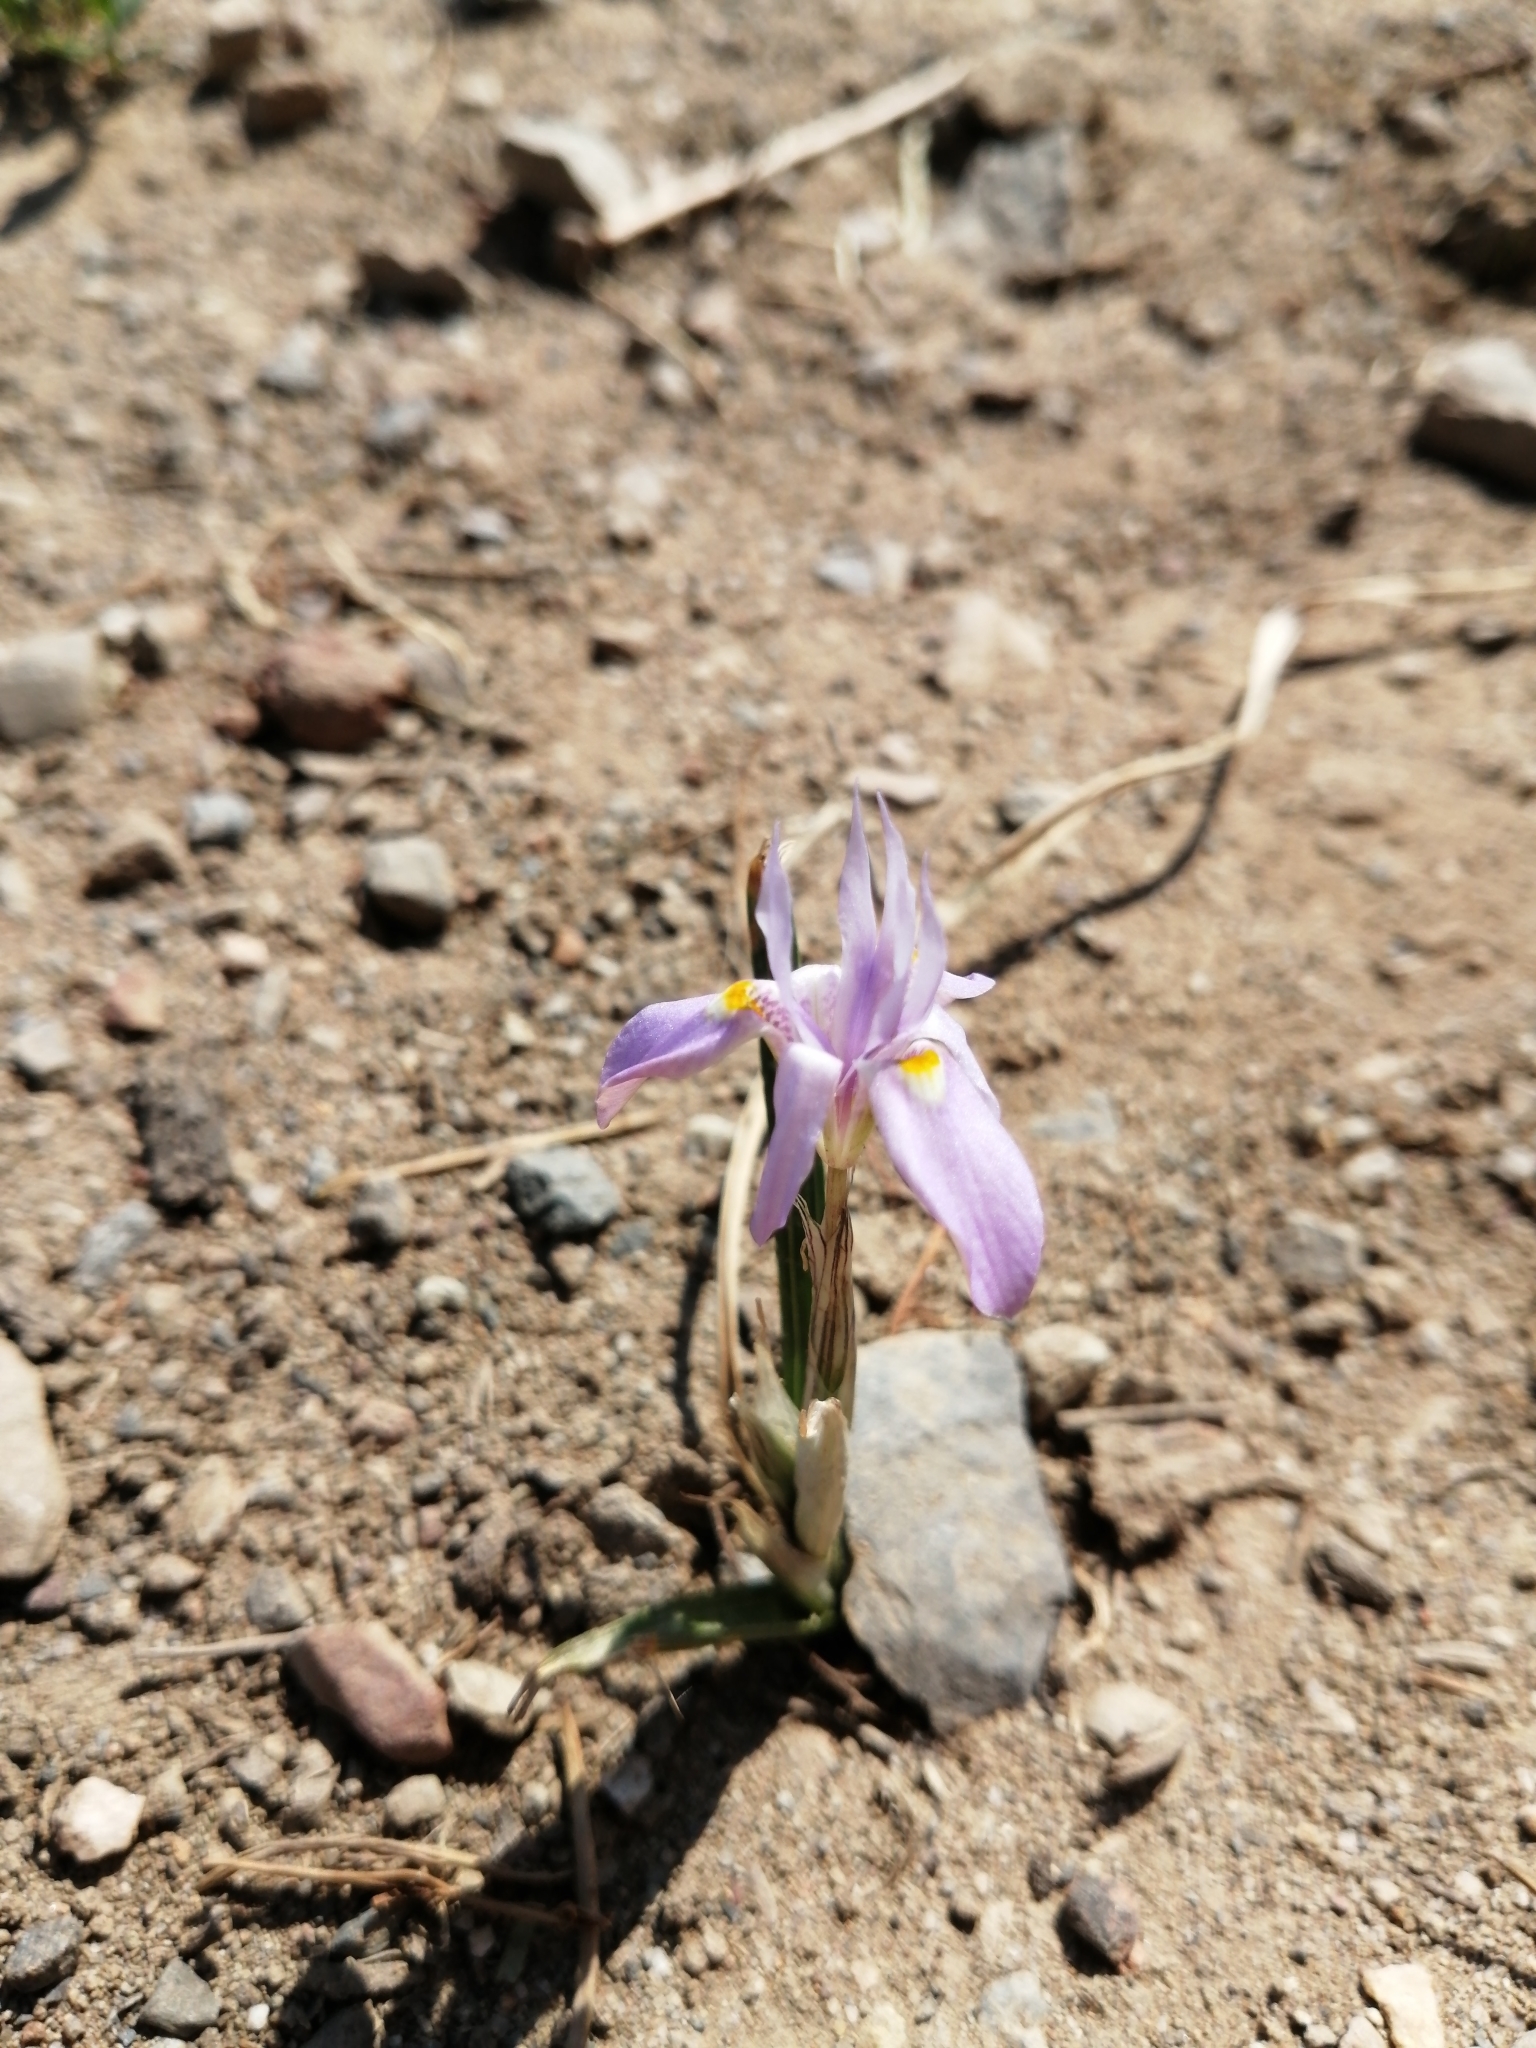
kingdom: Plantae
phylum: Tracheophyta
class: Liliopsida
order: Asparagales
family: Iridaceae
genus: Moraea
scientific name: Moraea setifolia
